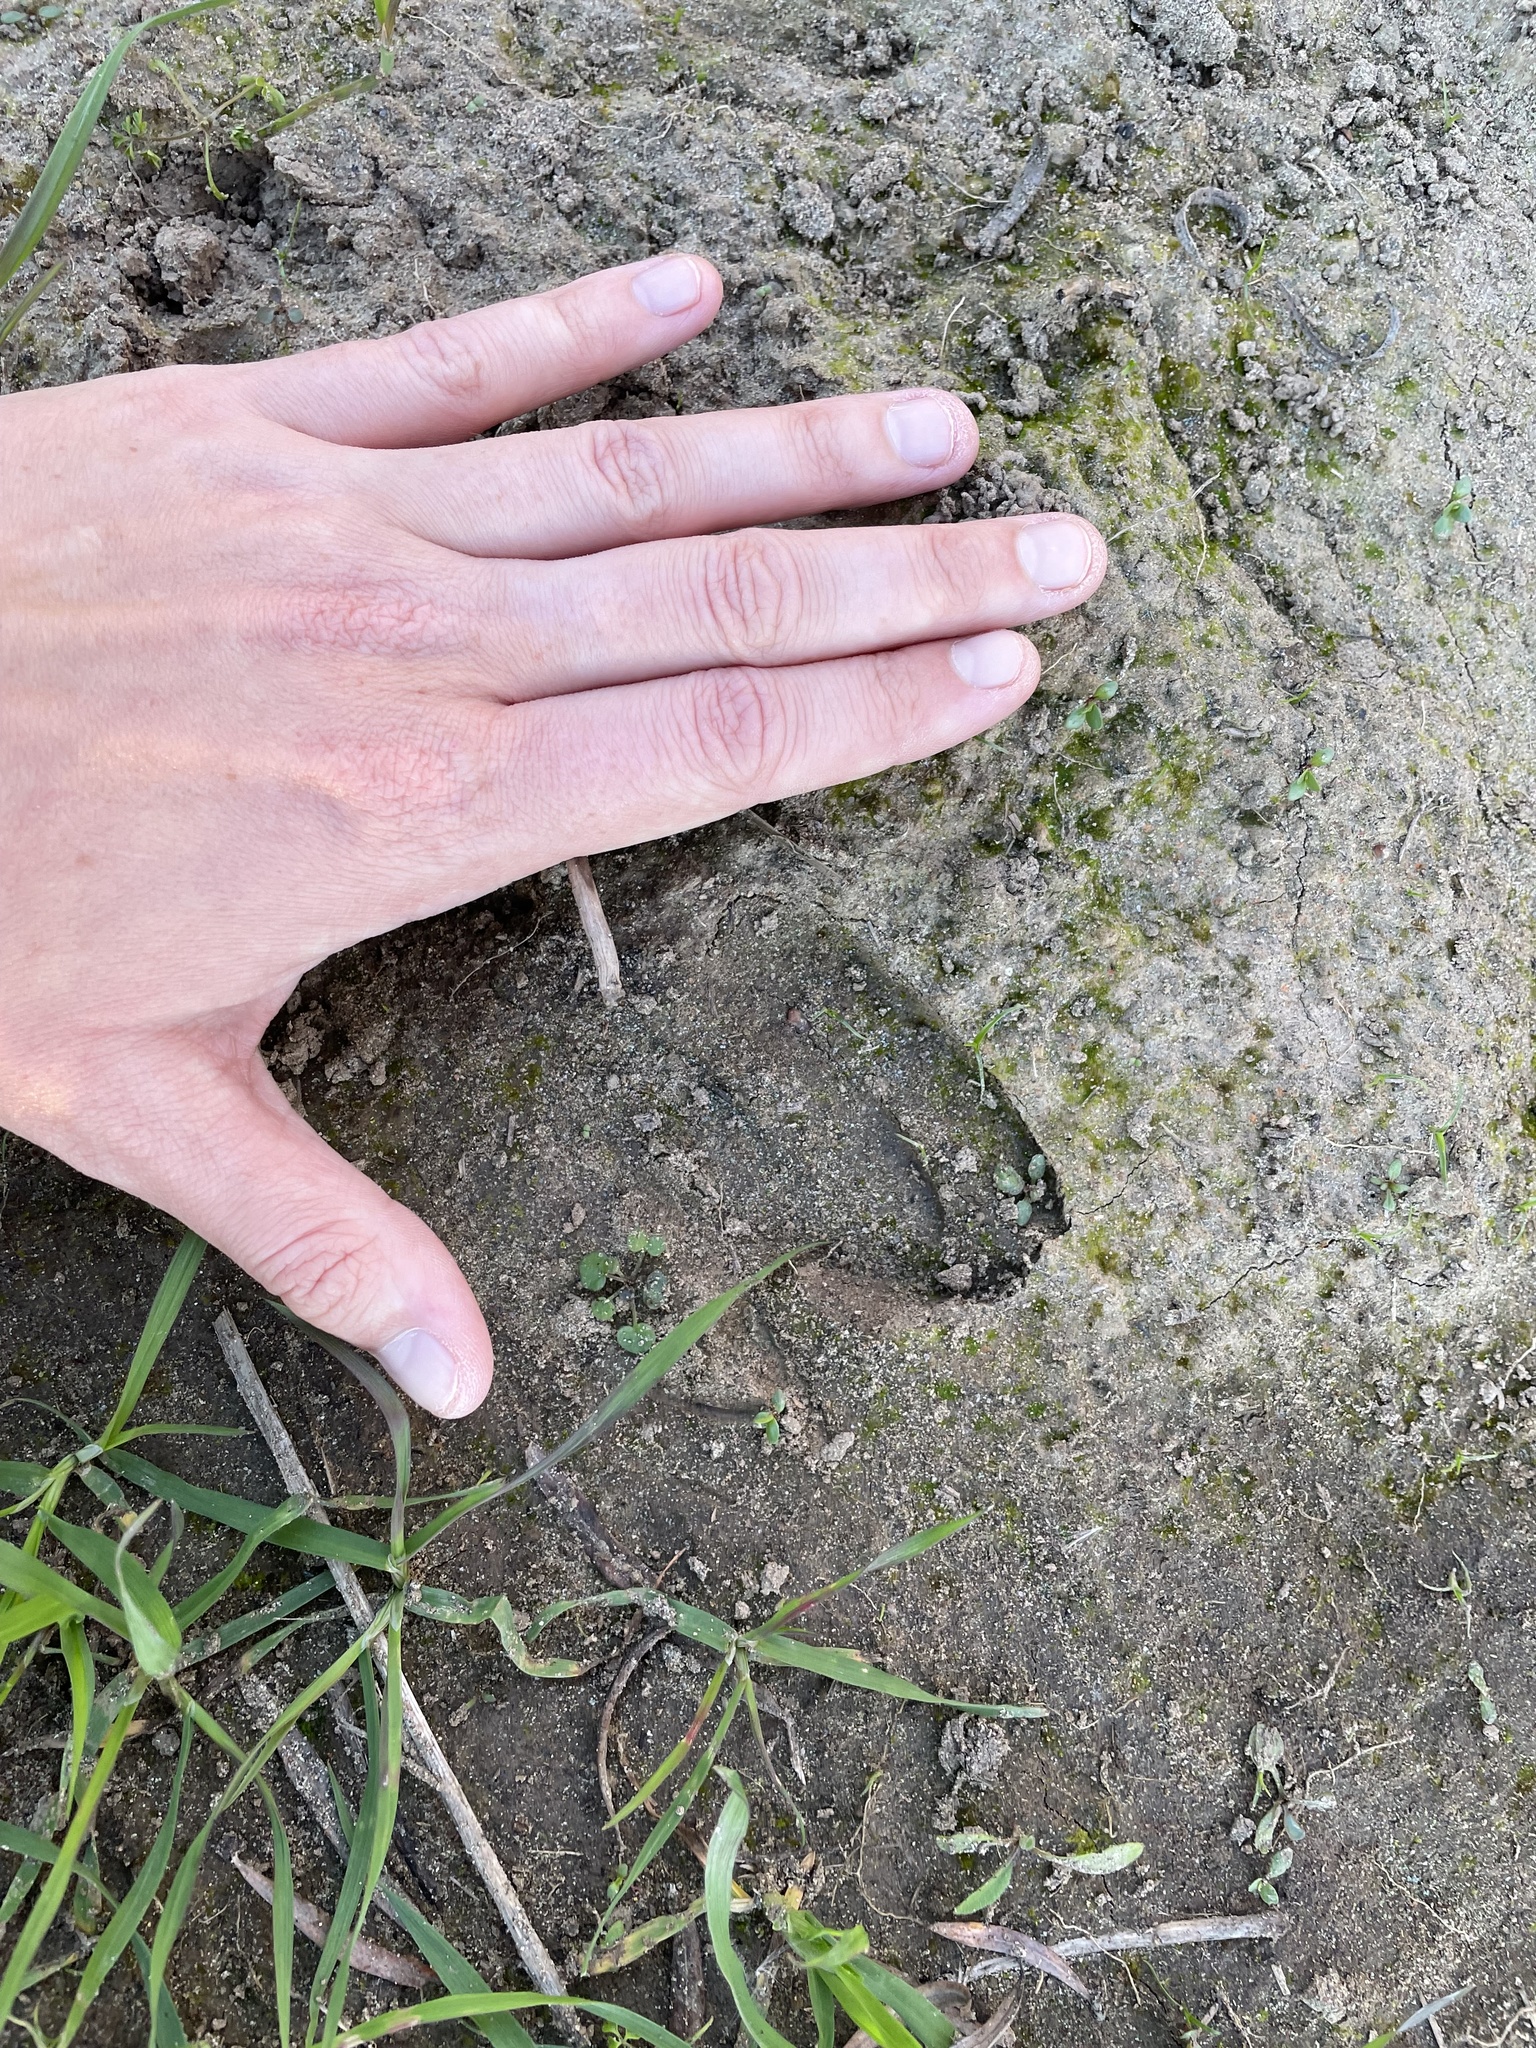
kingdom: Animalia
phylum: Chordata
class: Mammalia
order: Artiodactyla
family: Cervidae
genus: Odocoileus
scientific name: Odocoileus hemionus
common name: Mule deer
